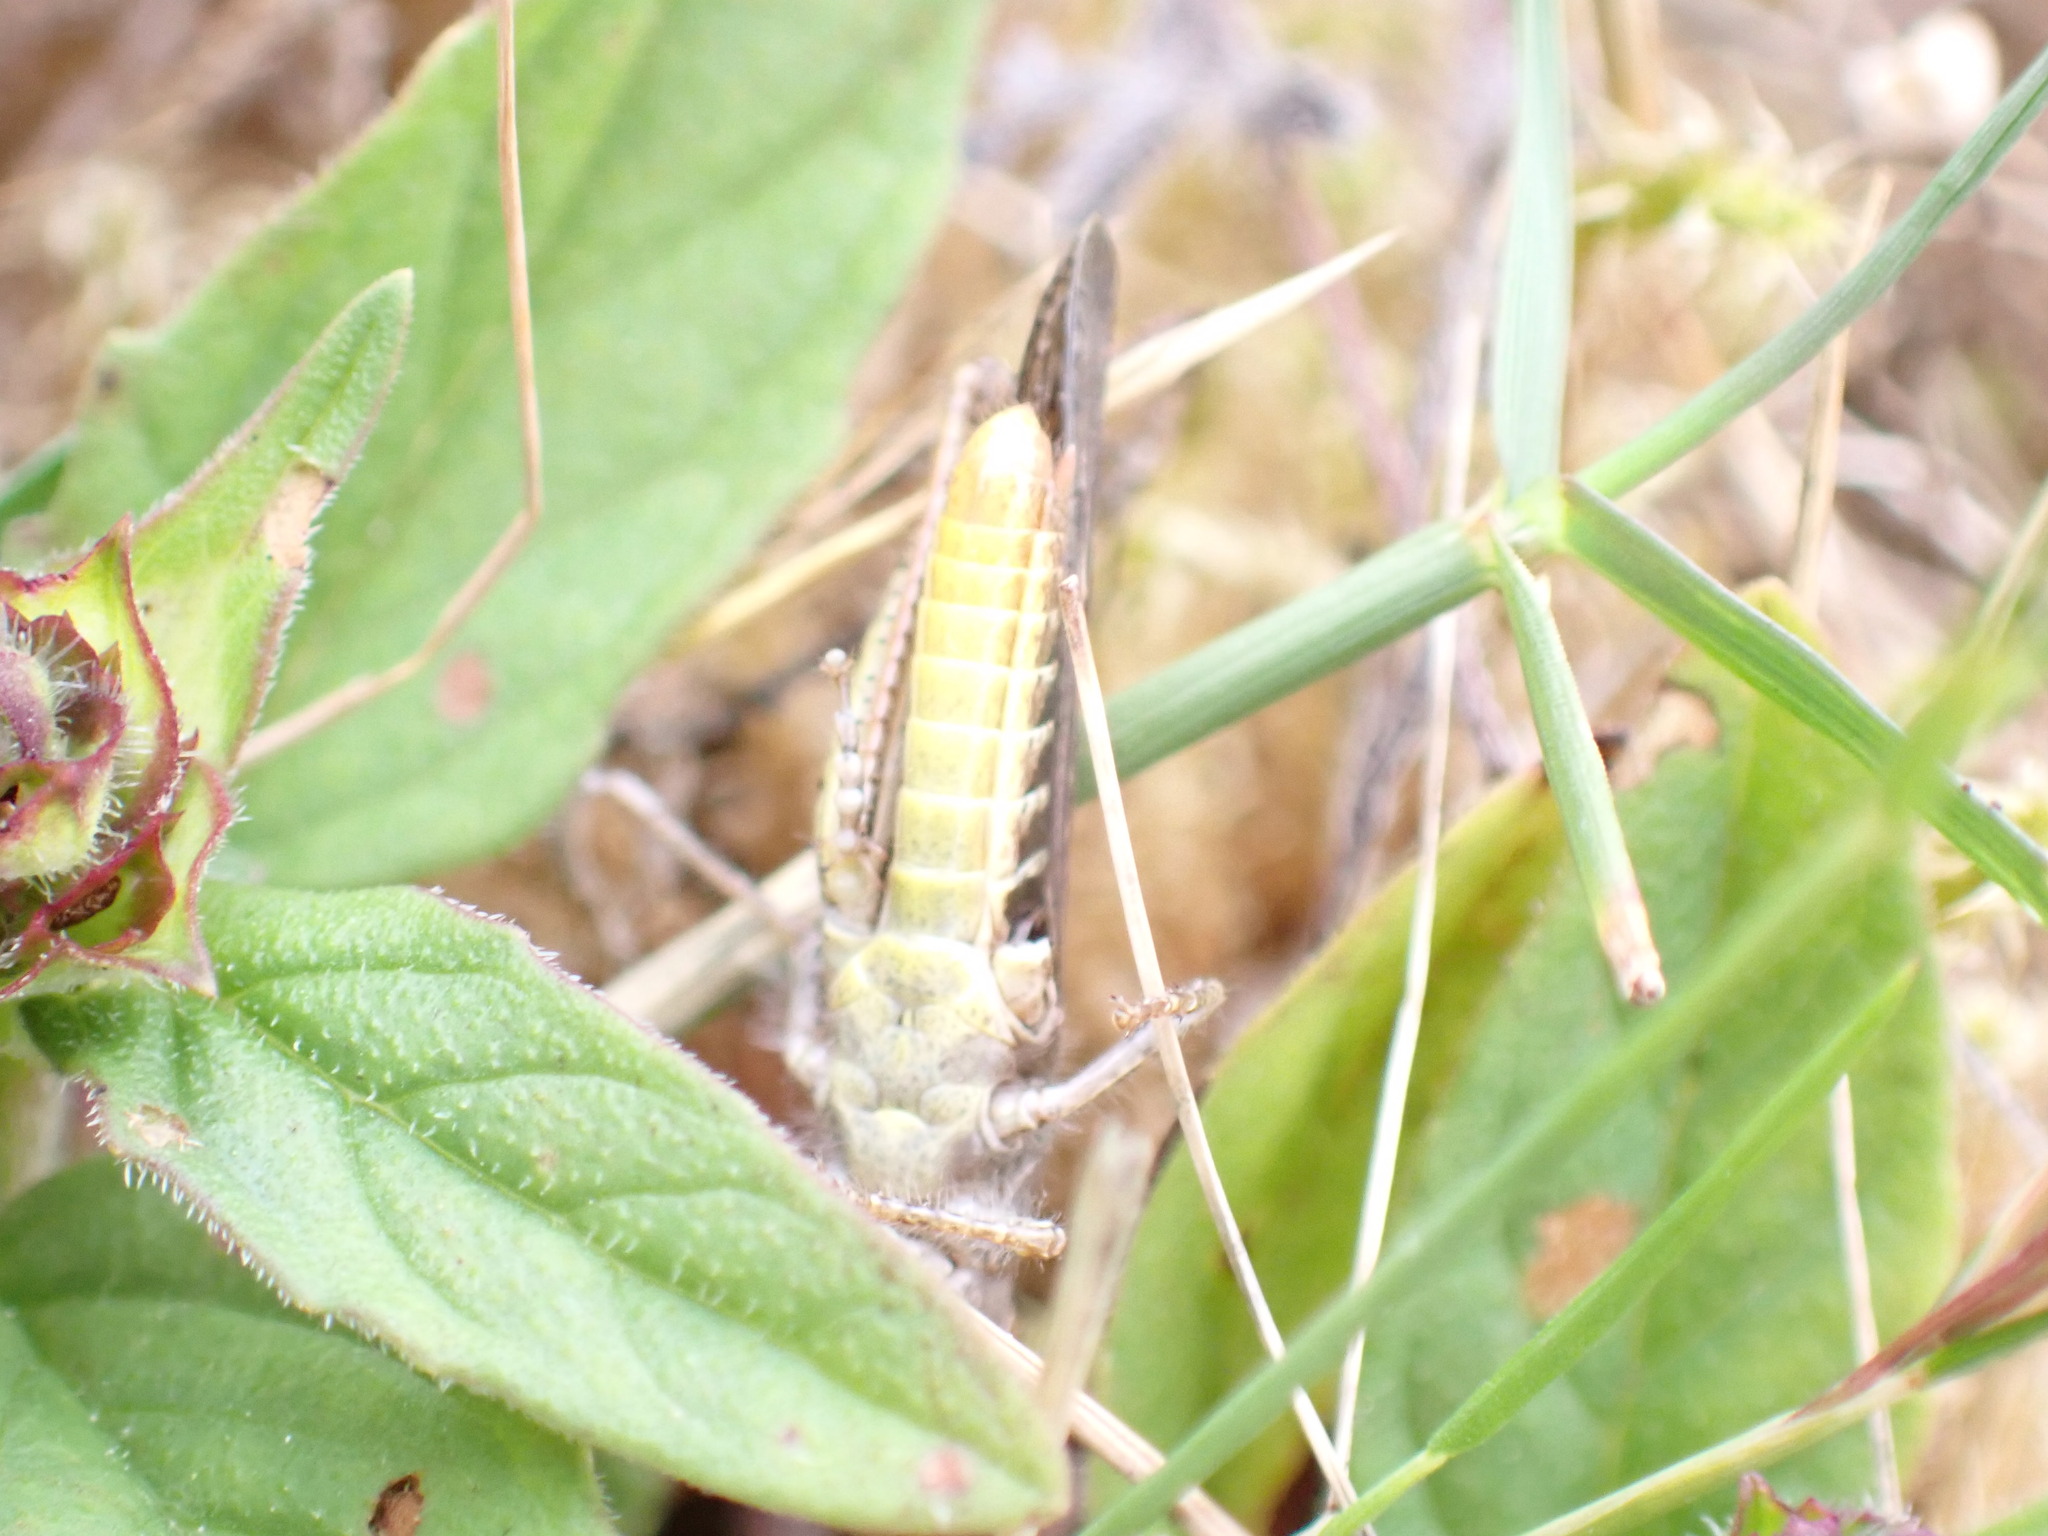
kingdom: Animalia
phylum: Arthropoda
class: Insecta
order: Orthoptera
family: Acrididae
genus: Chorthippus
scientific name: Chorthippus brunneus
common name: Field grasshopper
